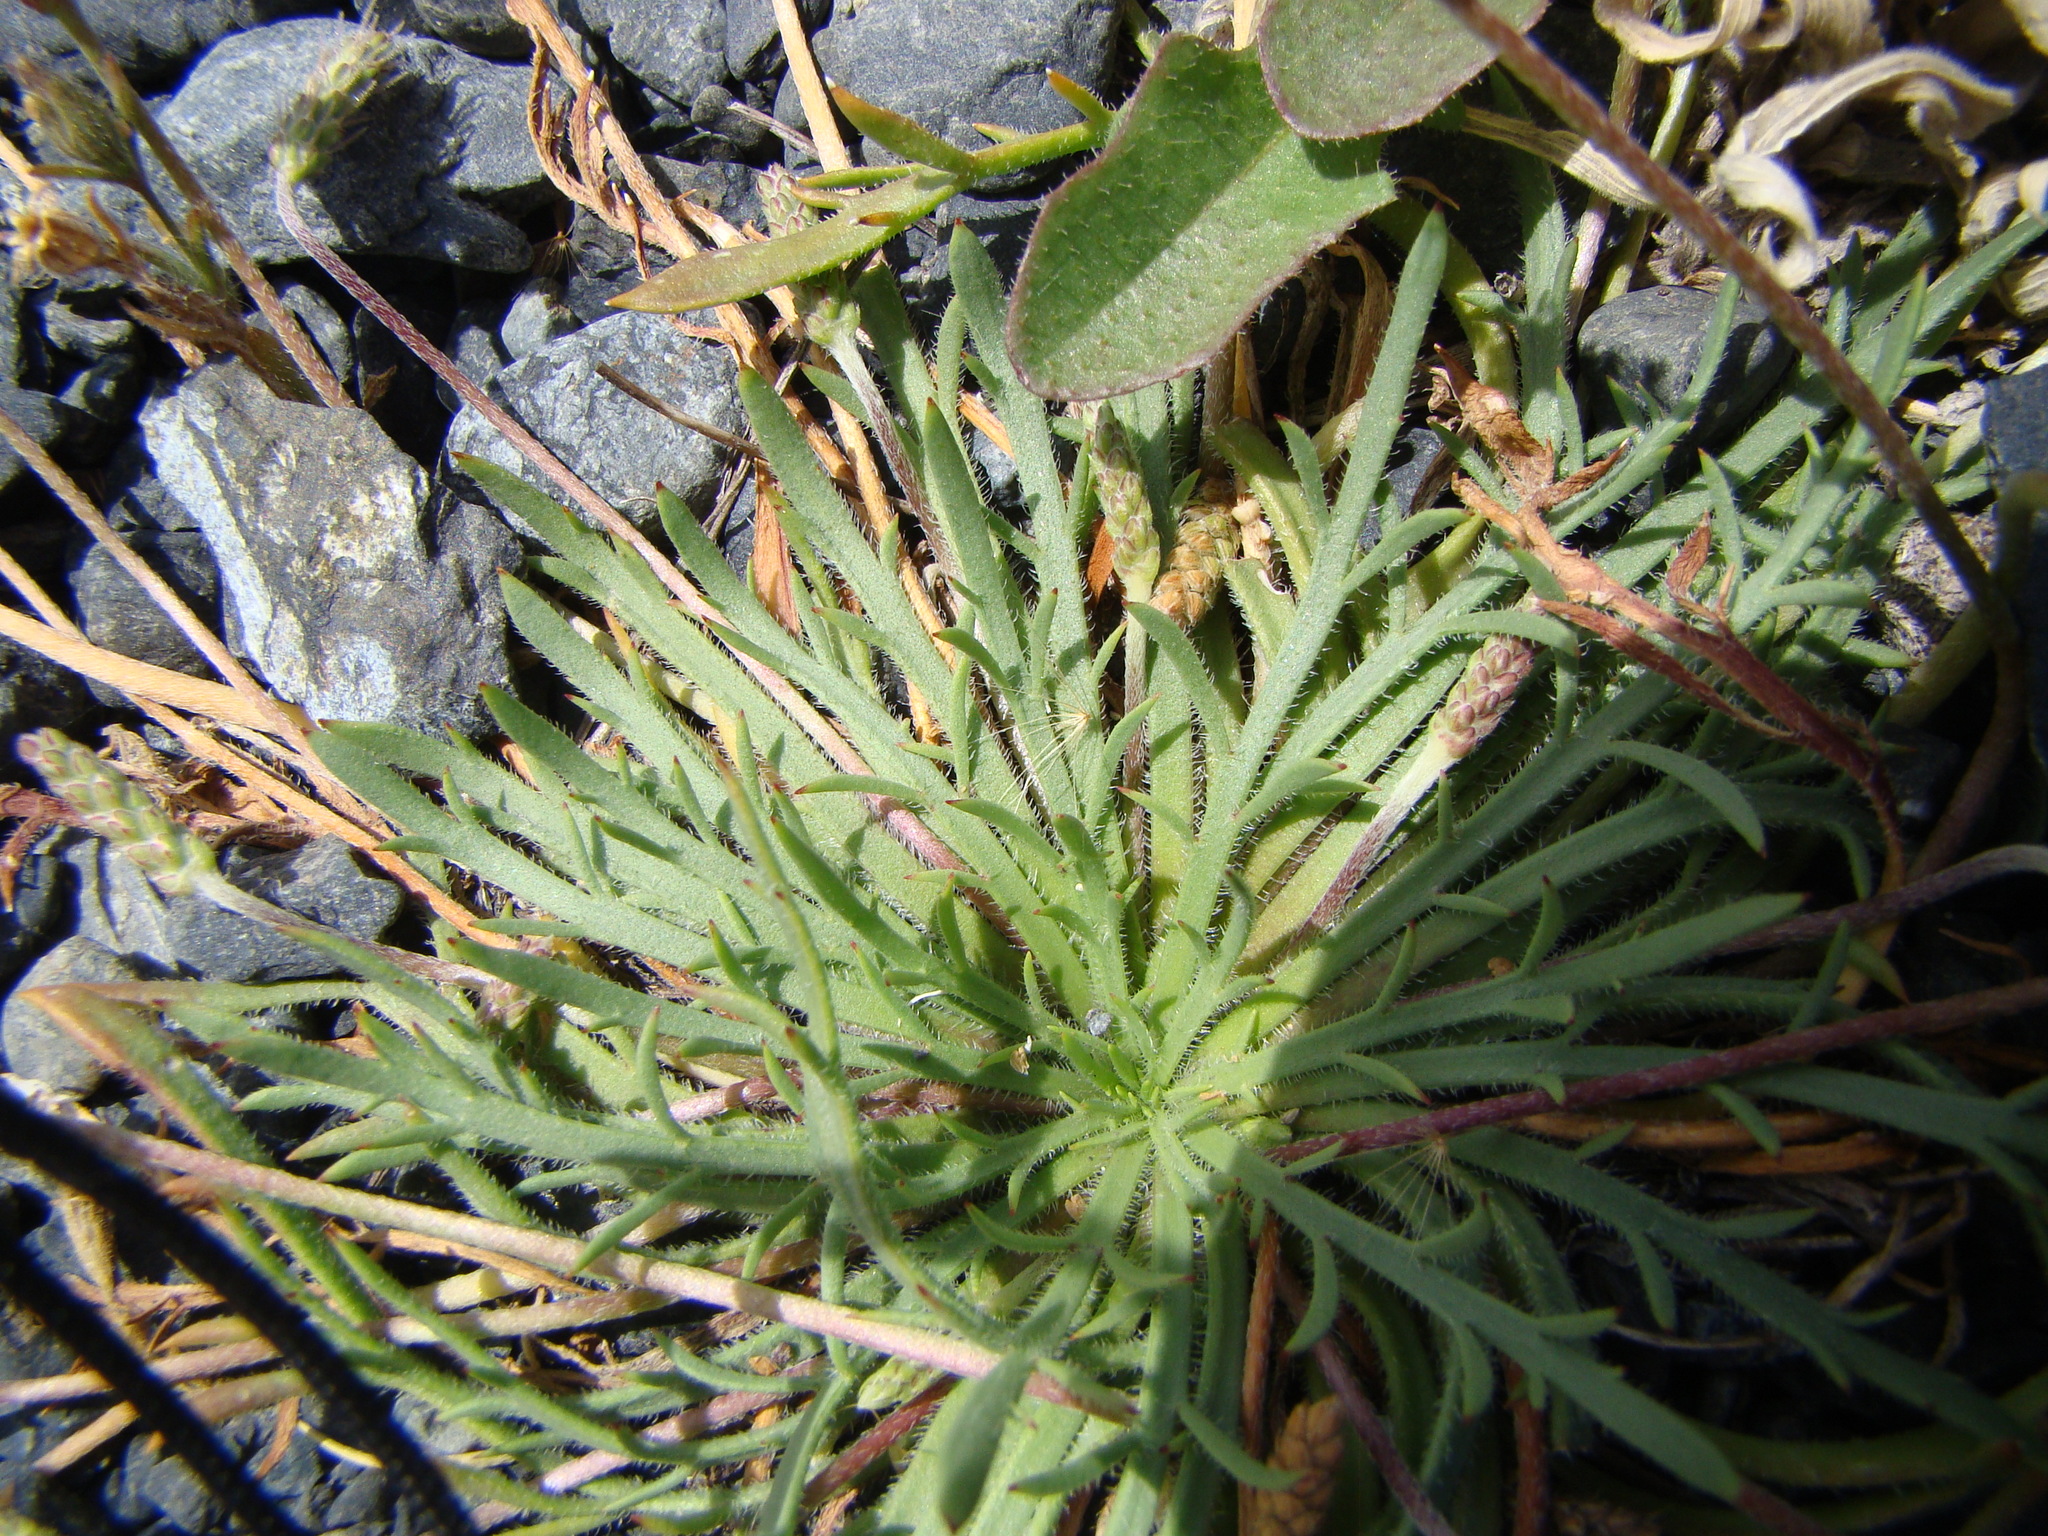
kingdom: Plantae
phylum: Tracheophyta
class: Magnoliopsida
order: Lamiales
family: Plantaginaceae
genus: Plantago
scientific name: Plantago coronopus
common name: Buck's-horn plantain
